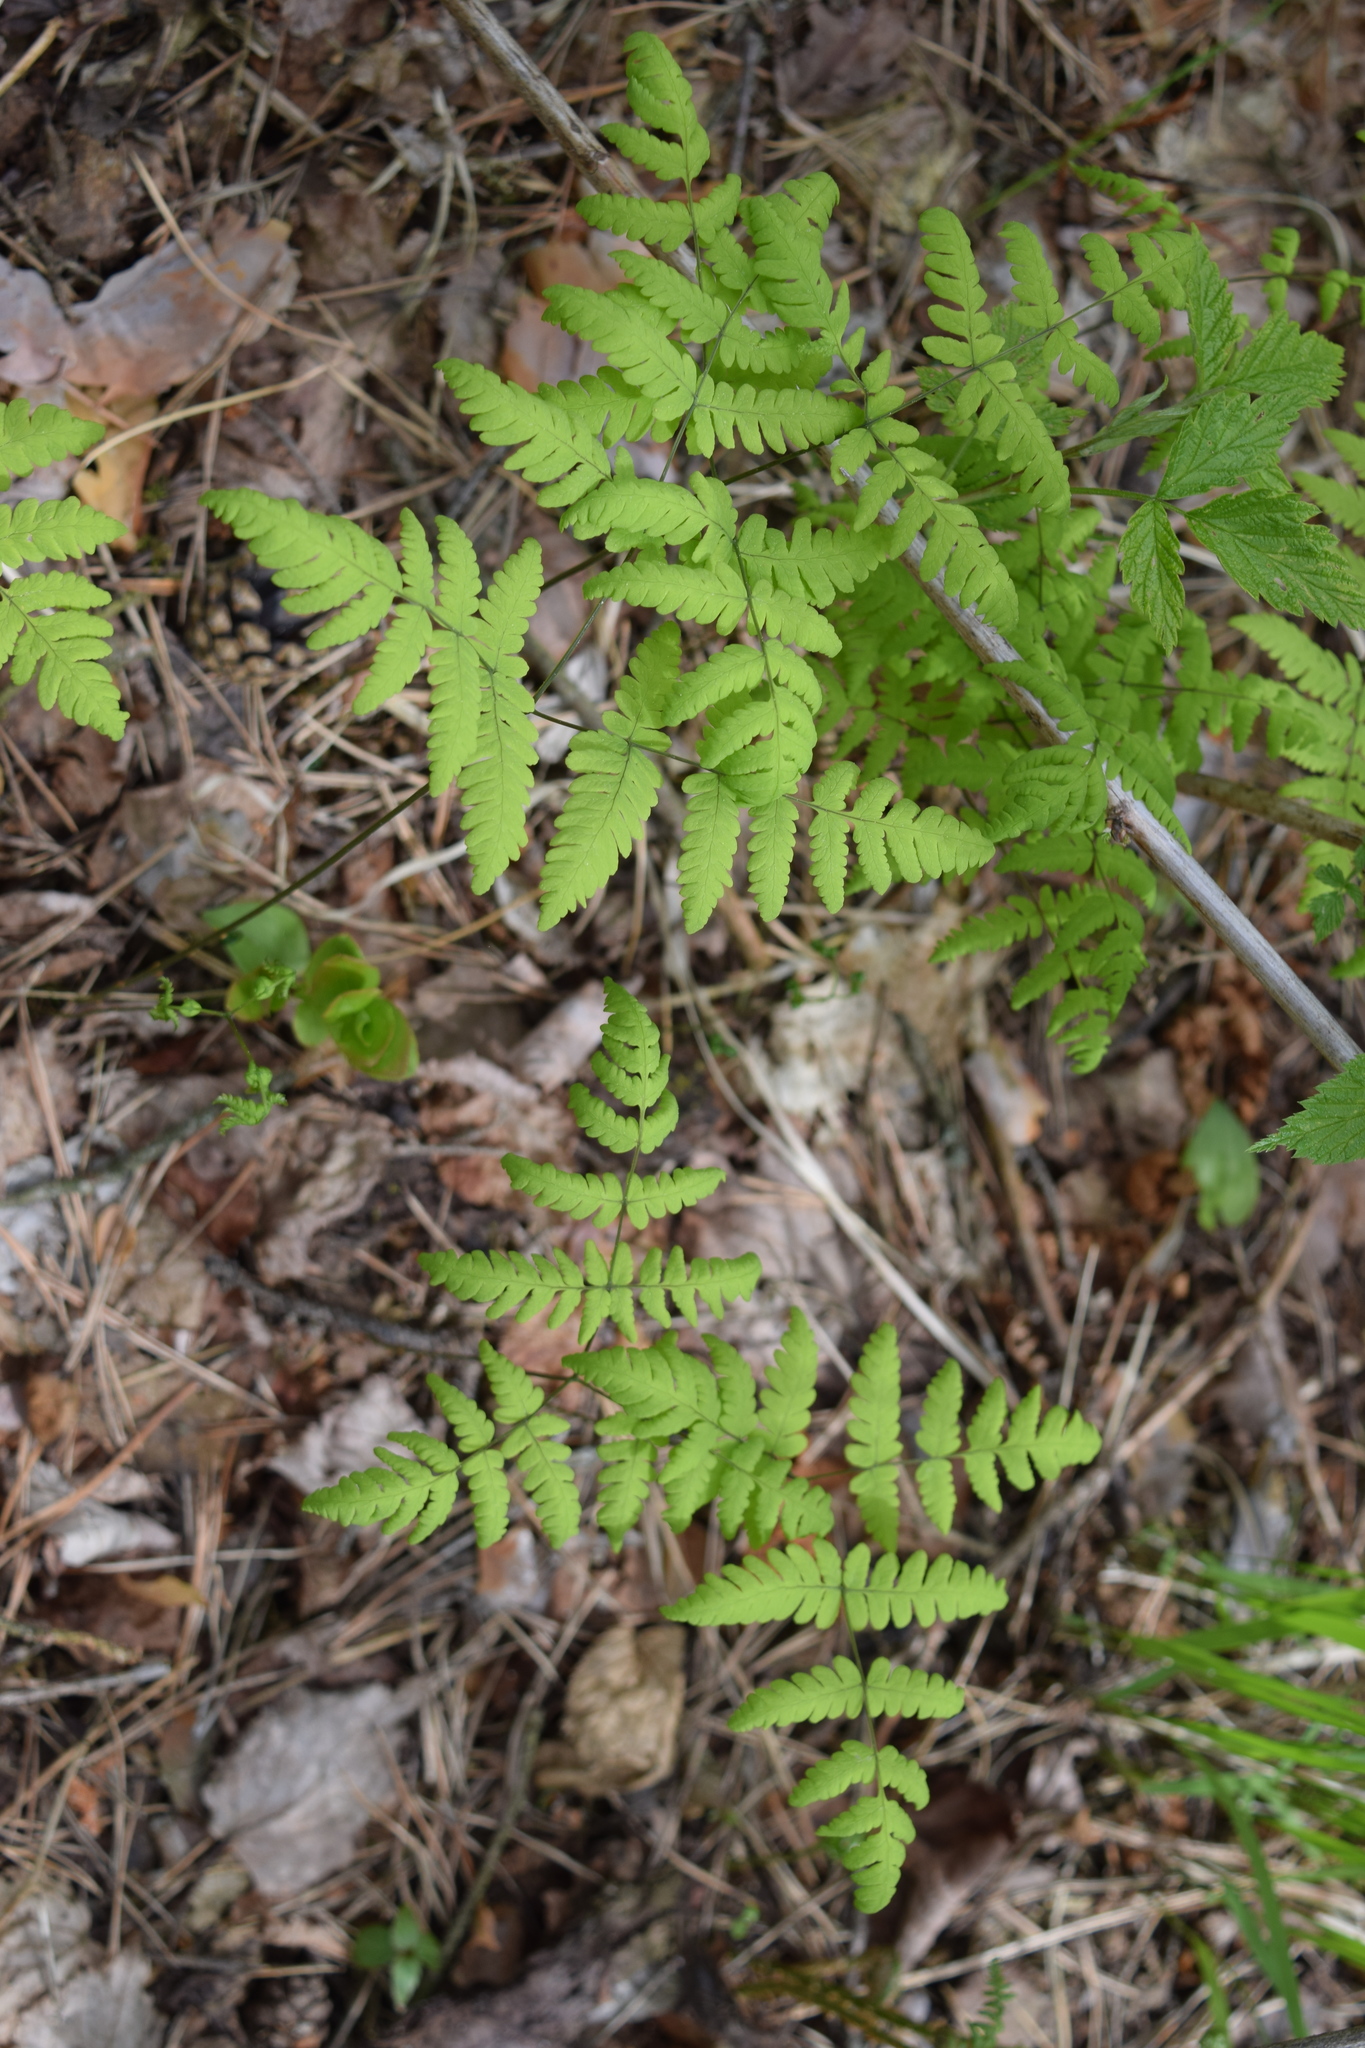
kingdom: Plantae
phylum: Tracheophyta
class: Polypodiopsida
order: Polypodiales
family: Cystopteridaceae
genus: Gymnocarpium
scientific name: Gymnocarpium dryopteris
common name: Oak fern
